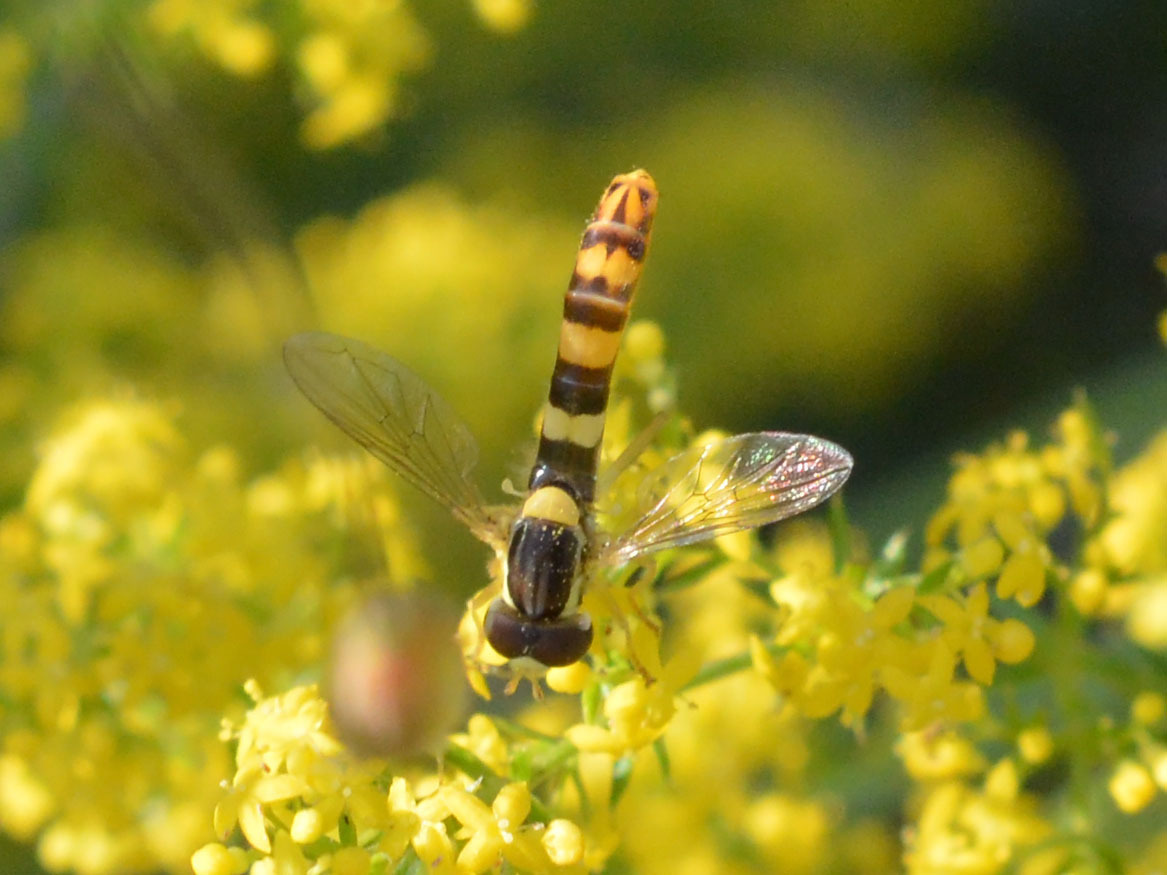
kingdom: Animalia
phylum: Arthropoda
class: Insecta
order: Diptera
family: Syrphidae
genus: Sphaerophoria
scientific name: Sphaerophoria scripta
